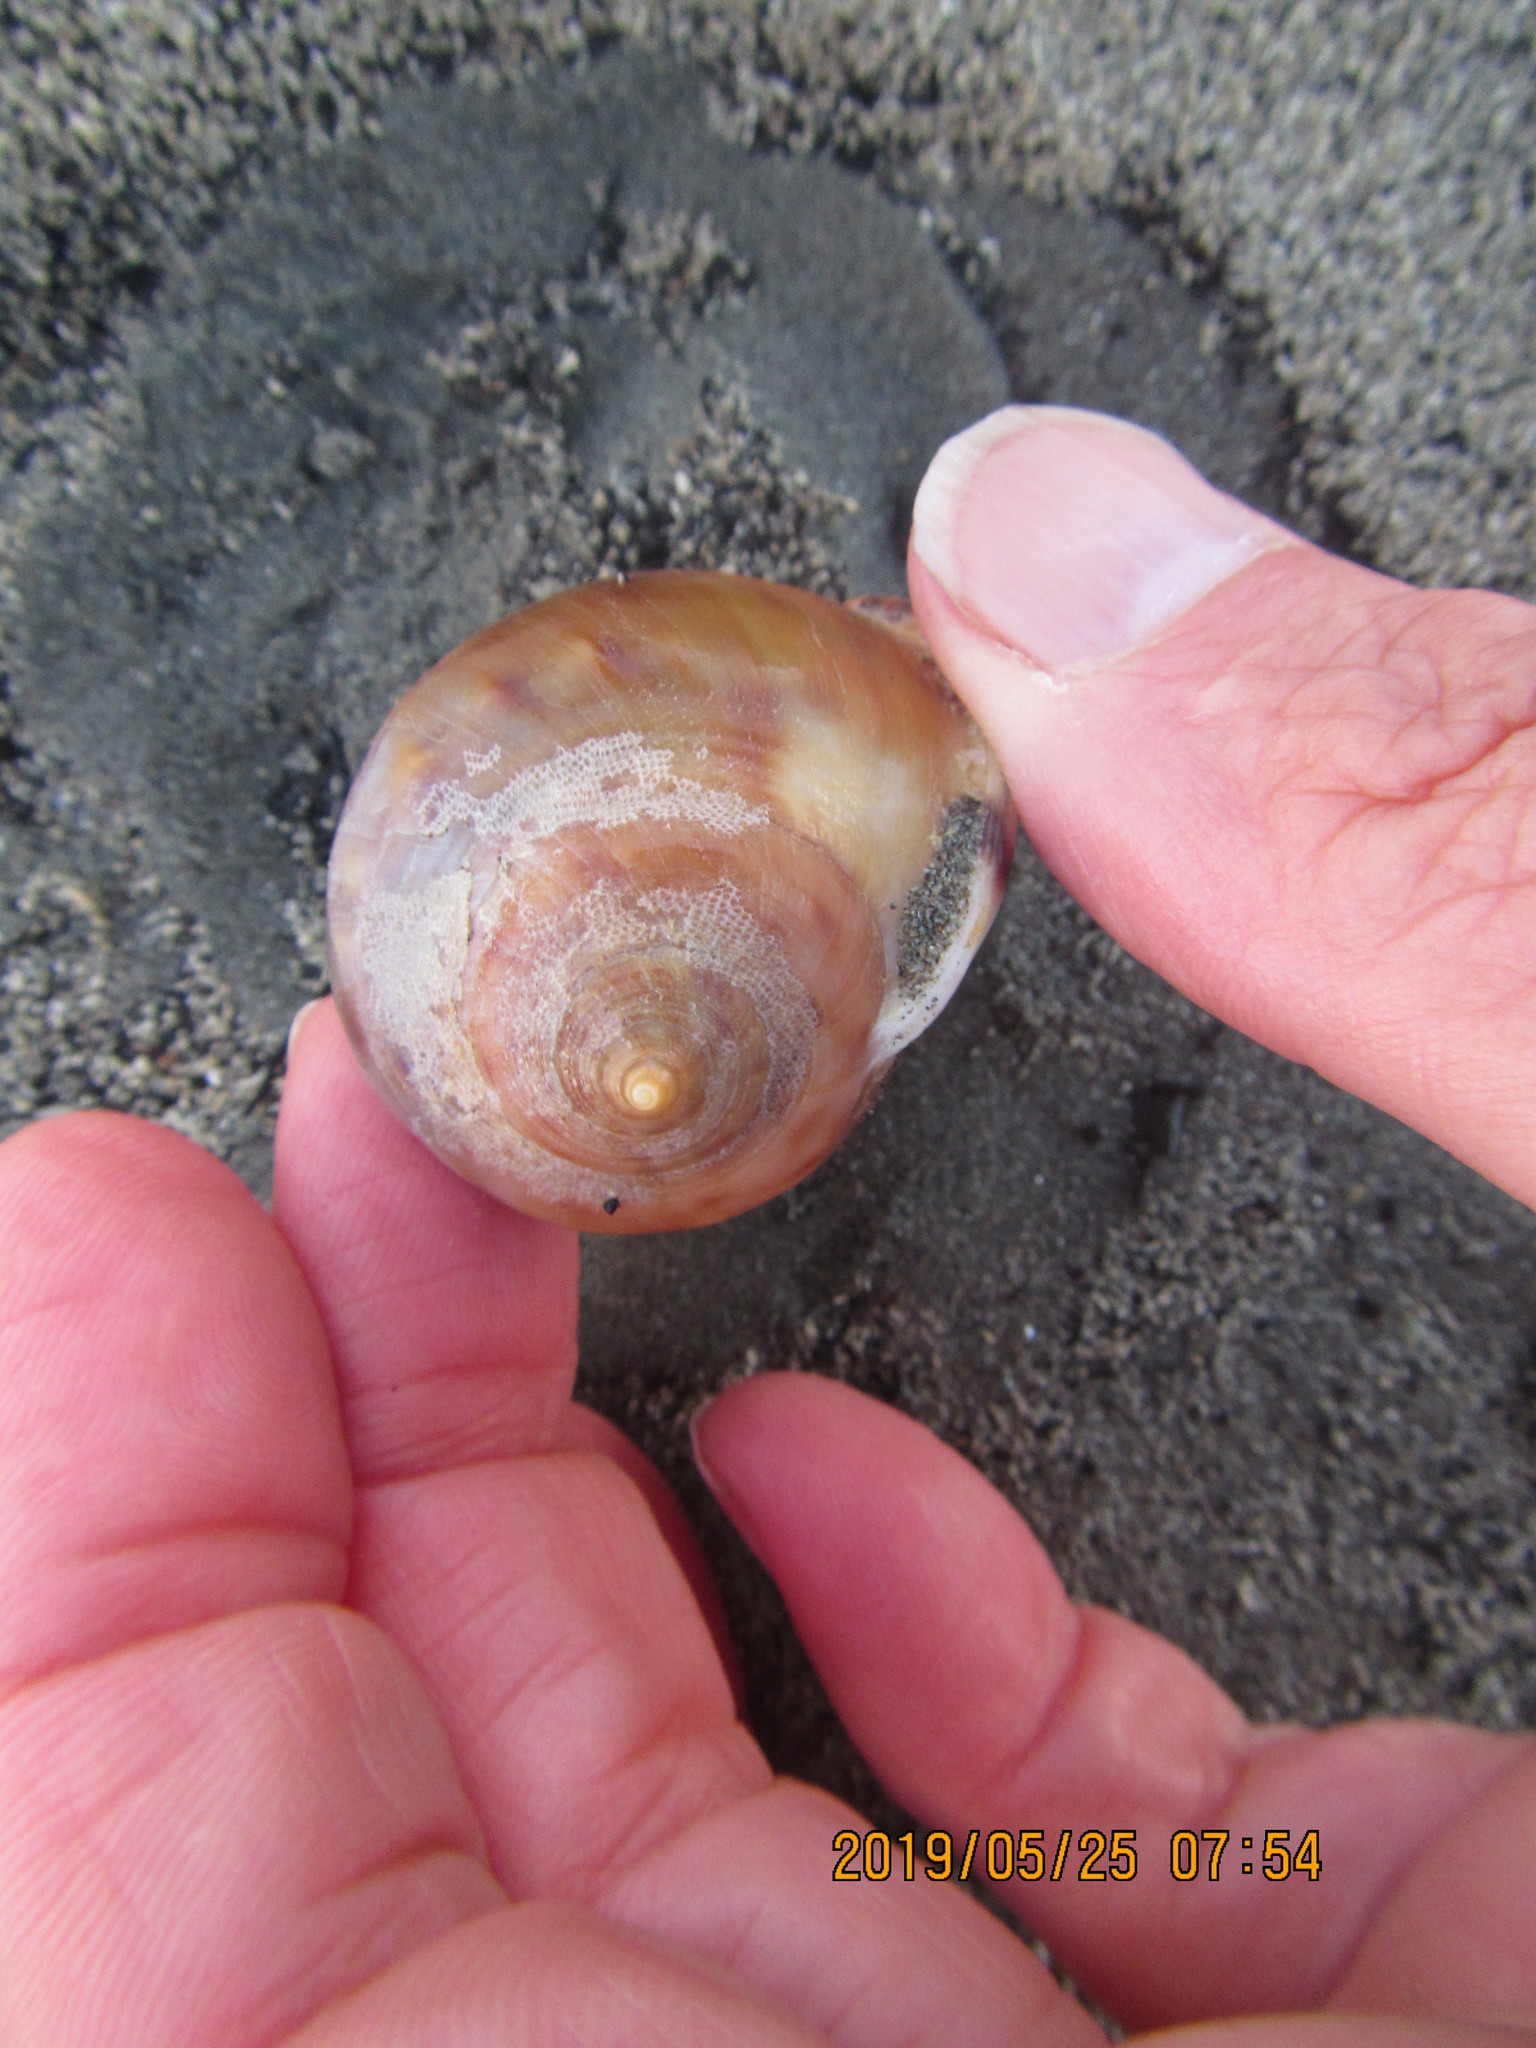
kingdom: Animalia
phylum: Mollusca
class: Gastropoda
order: Littorinimorpha
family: Cassidae
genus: Semicassis
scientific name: Semicassis pyrum
